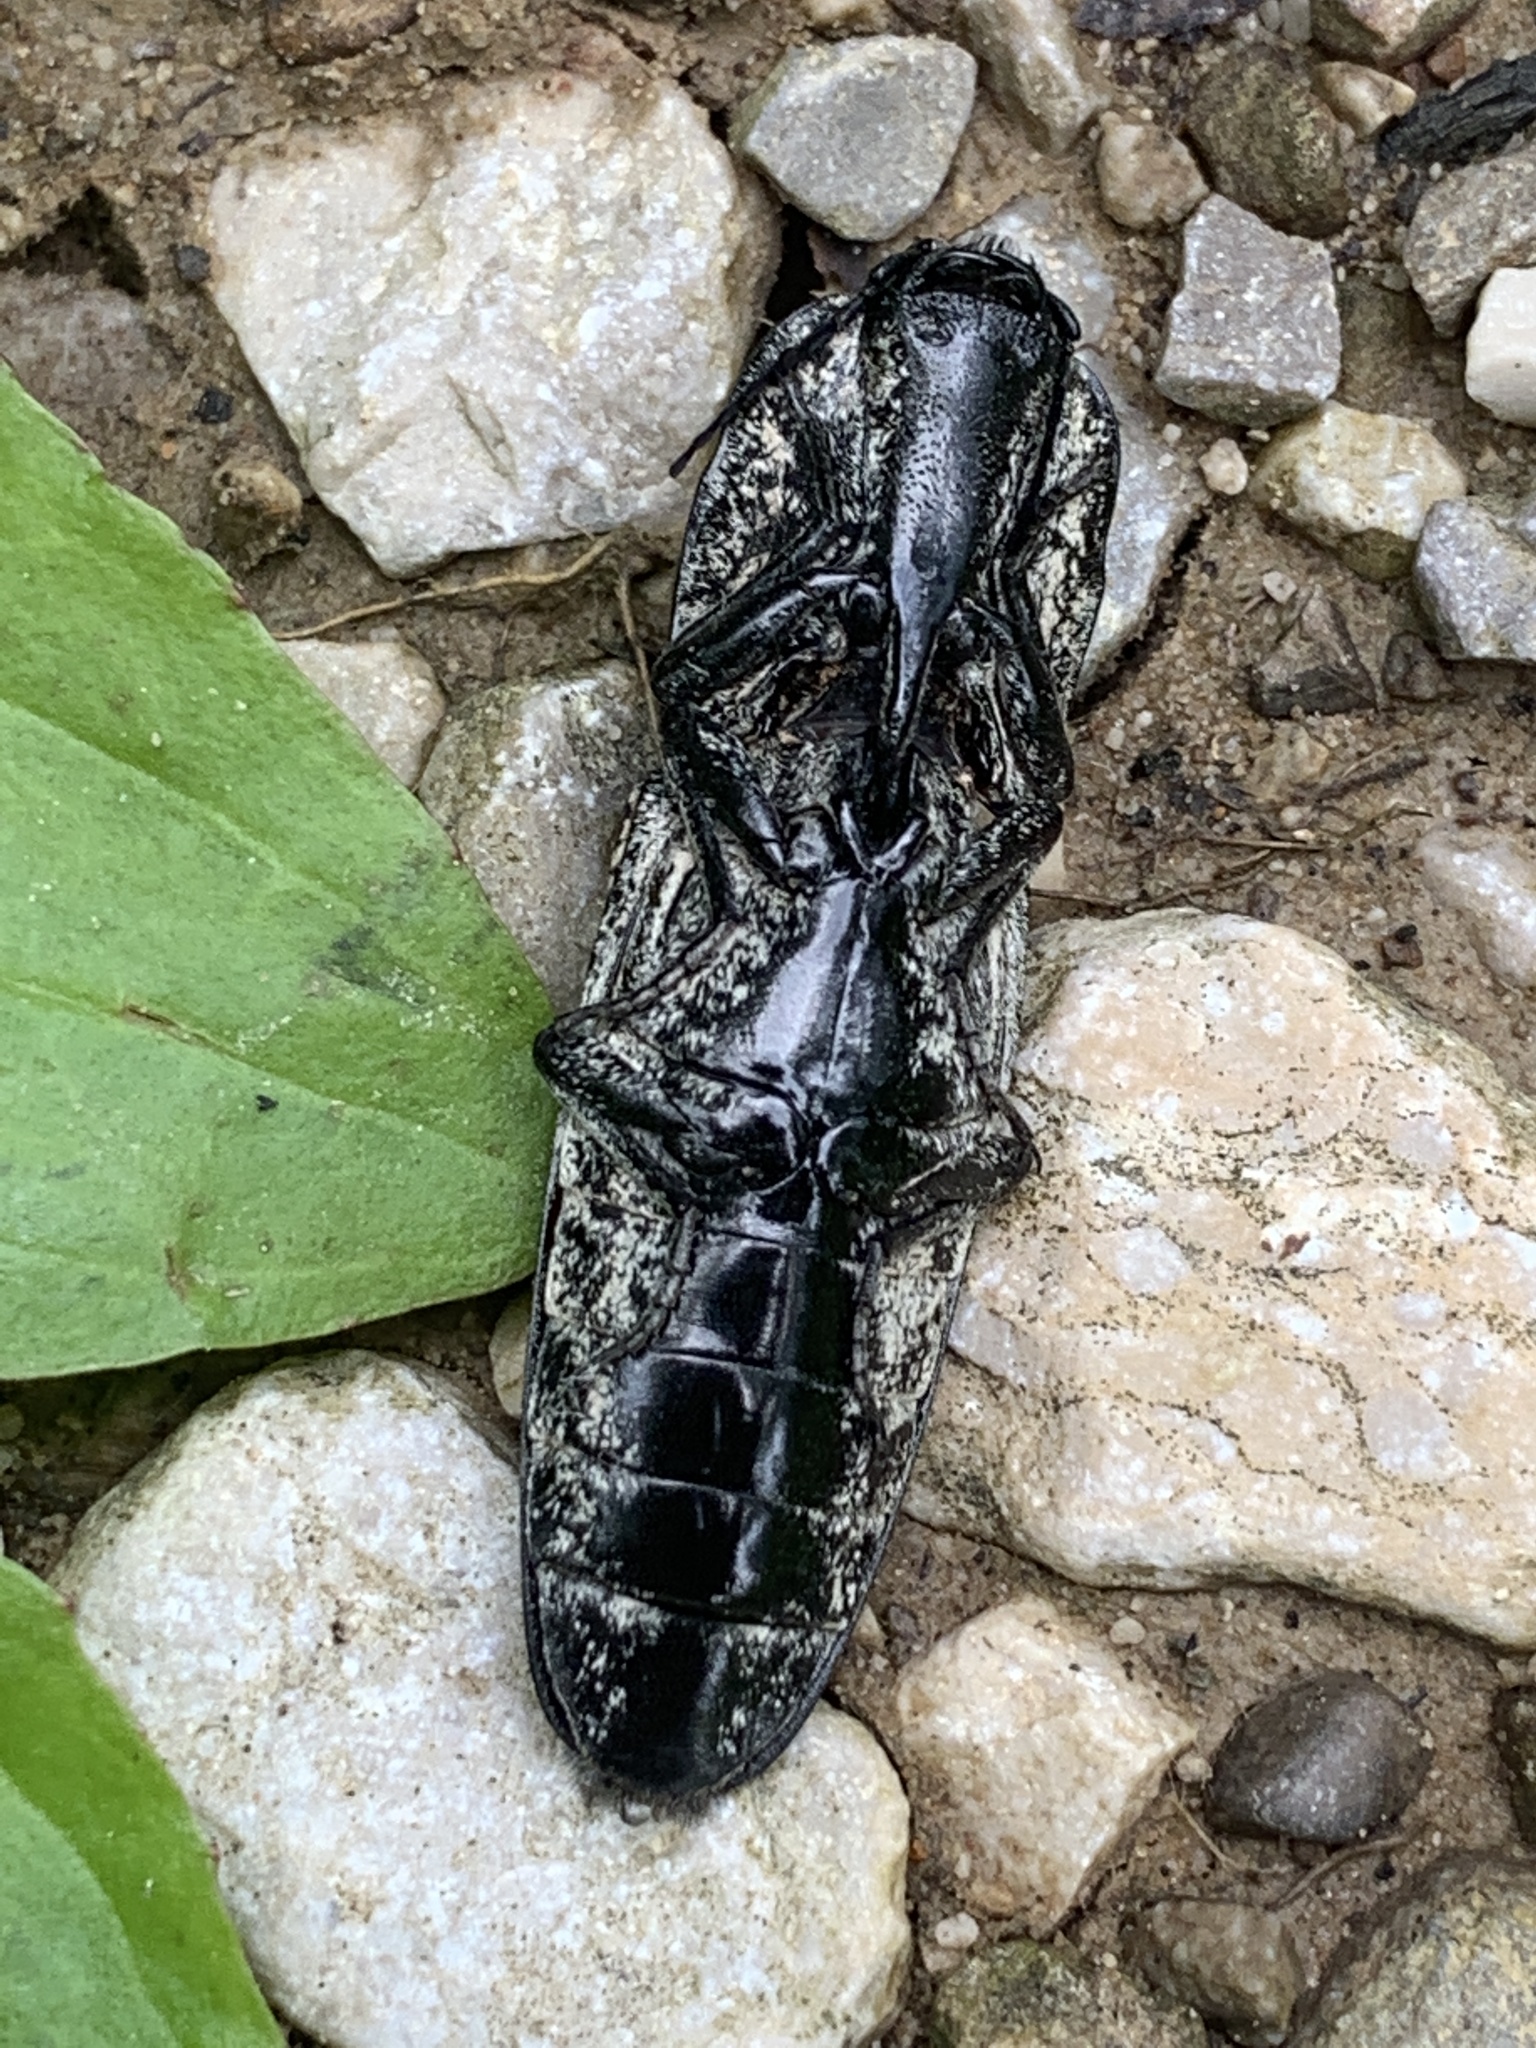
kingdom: Animalia
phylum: Arthropoda
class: Insecta
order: Coleoptera
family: Elateridae
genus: Alaus
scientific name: Alaus oculatus
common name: Eastern eyed click beetle
